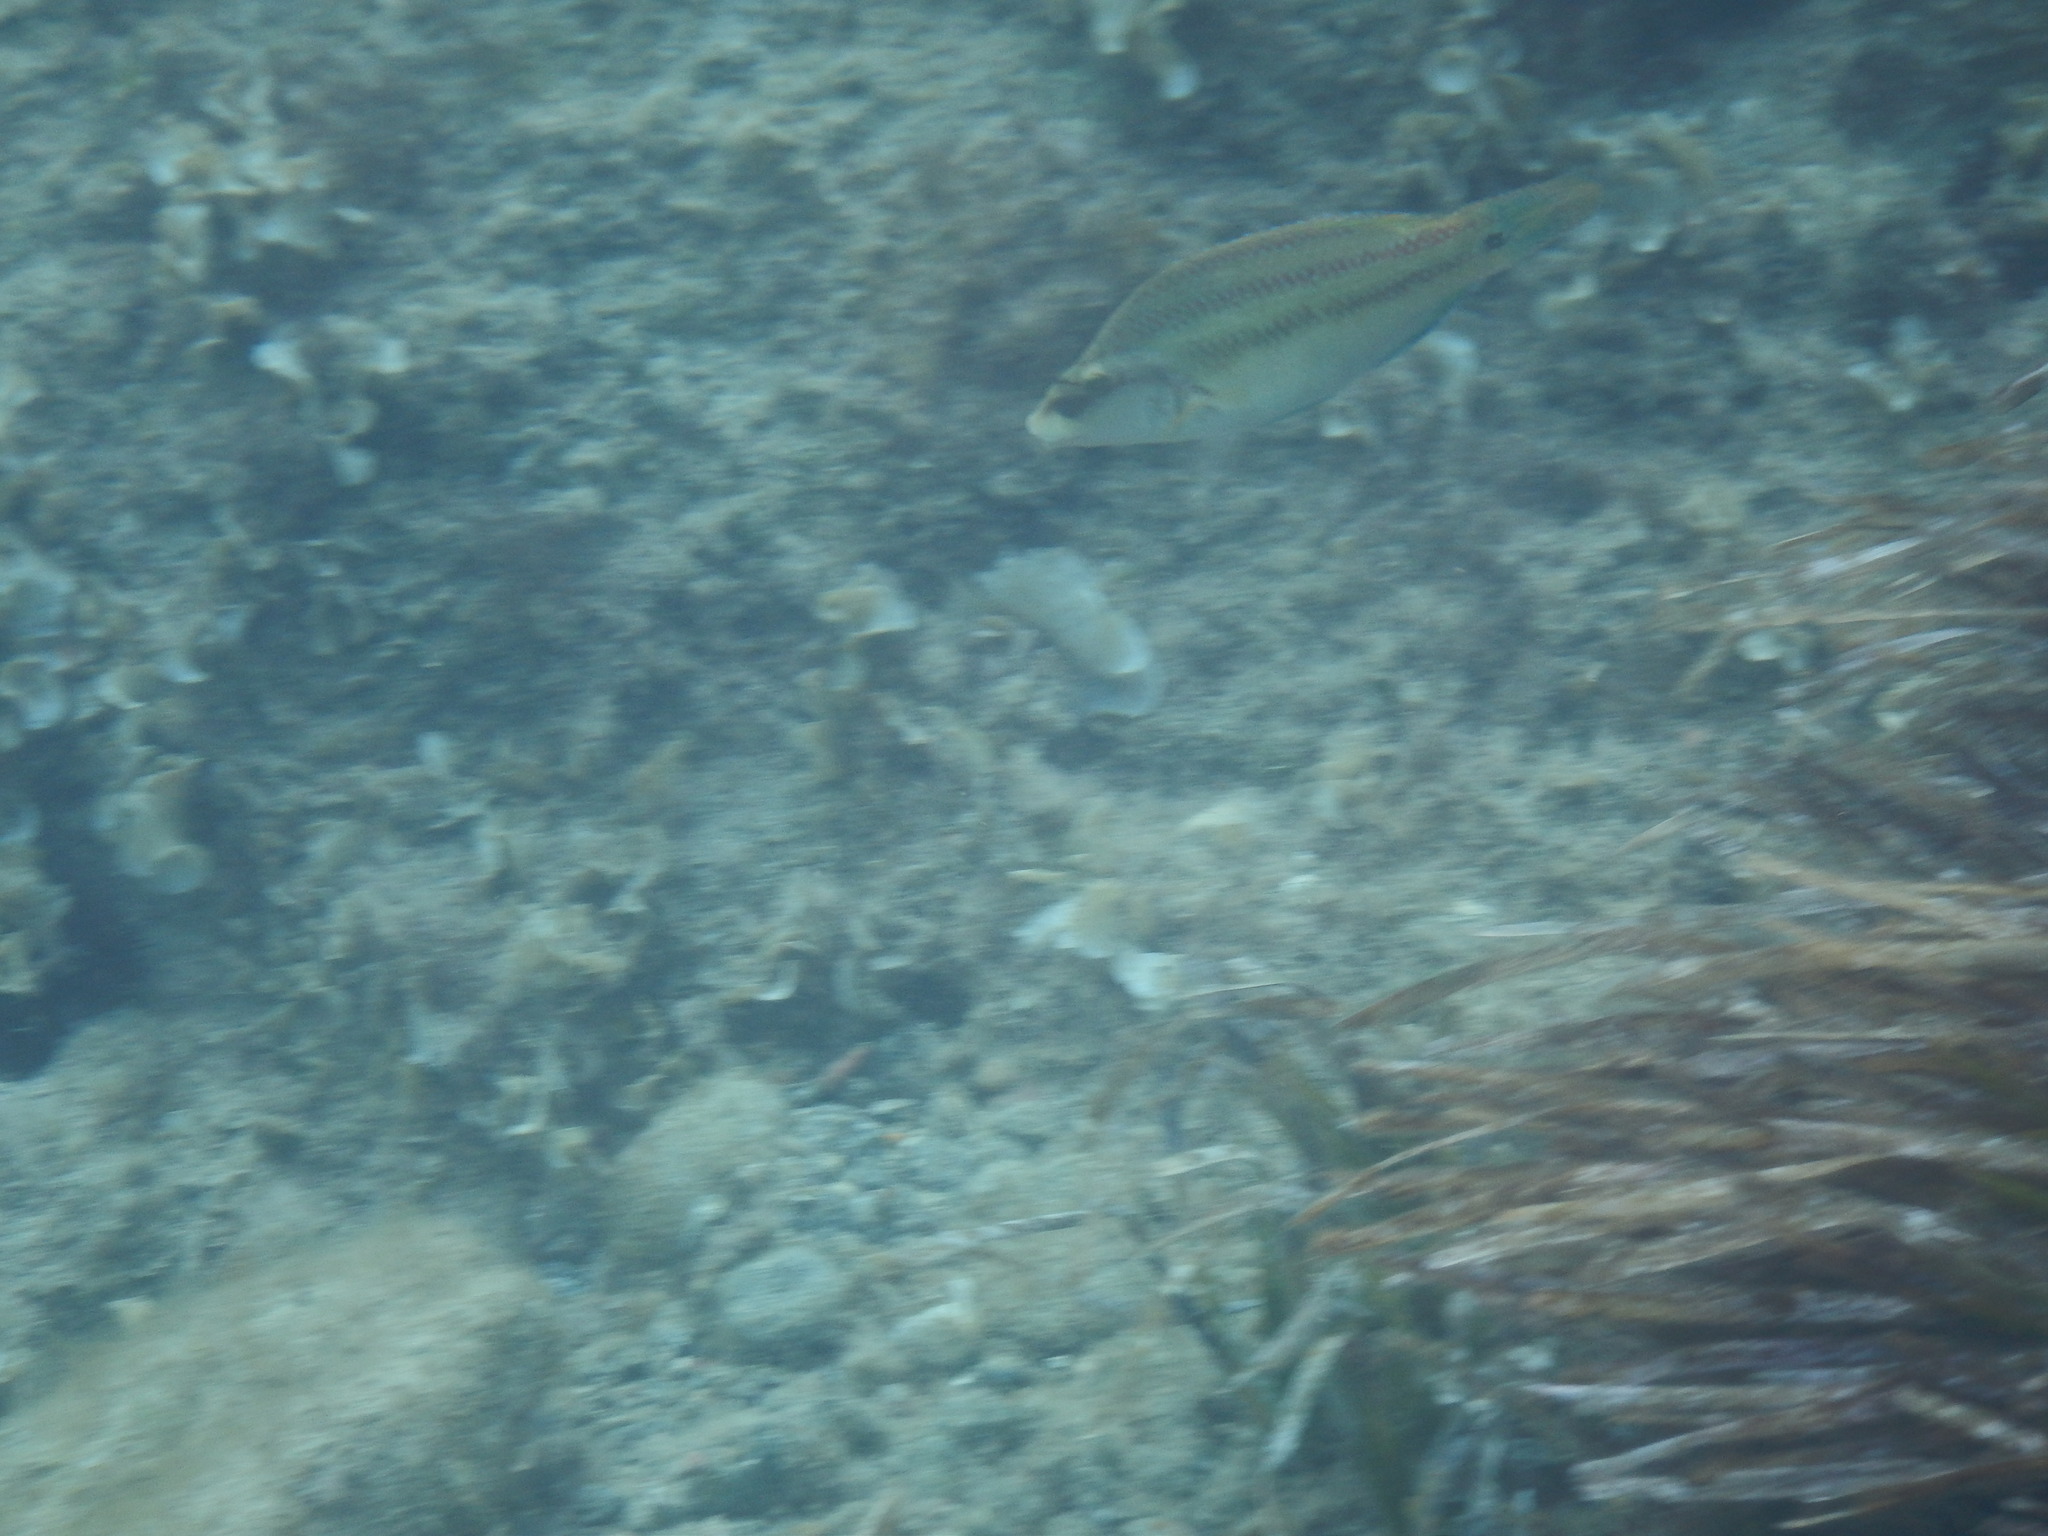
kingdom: Animalia
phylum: Chordata
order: Perciformes
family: Labridae
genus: Symphodus
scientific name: Symphodus tinca
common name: Peacock wrasse
